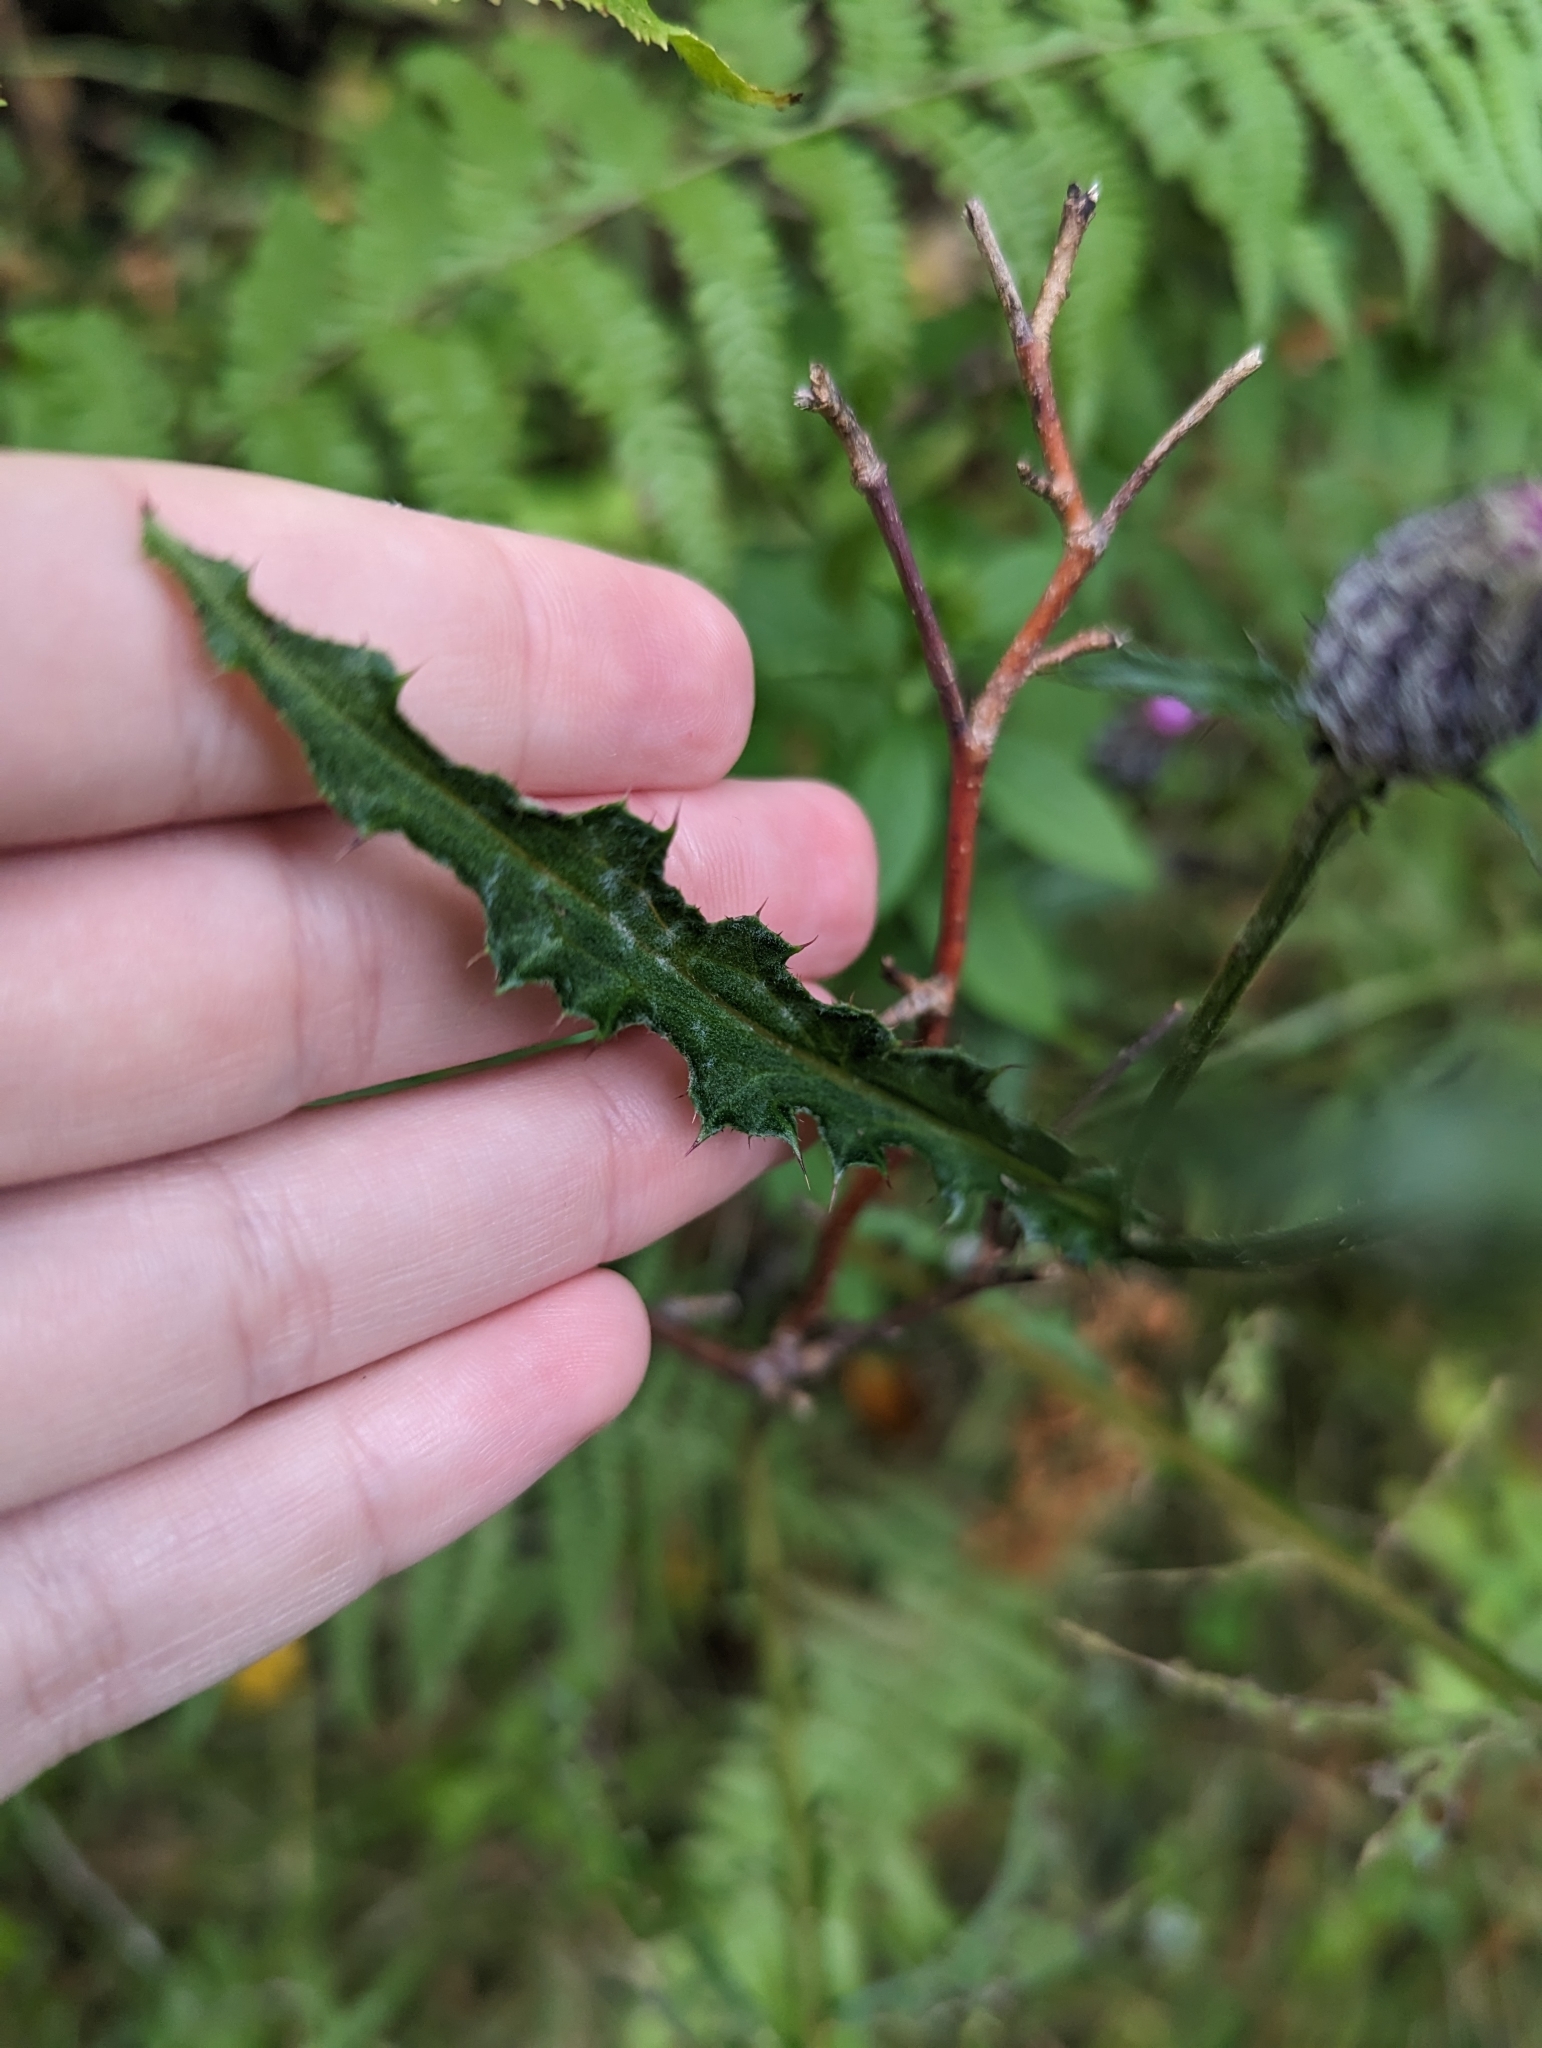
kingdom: Plantae
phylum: Tracheophyta
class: Magnoliopsida
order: Asterales
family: Asteraceae
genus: Cirsium
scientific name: Cirsium muticum
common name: Dunce-nettle
